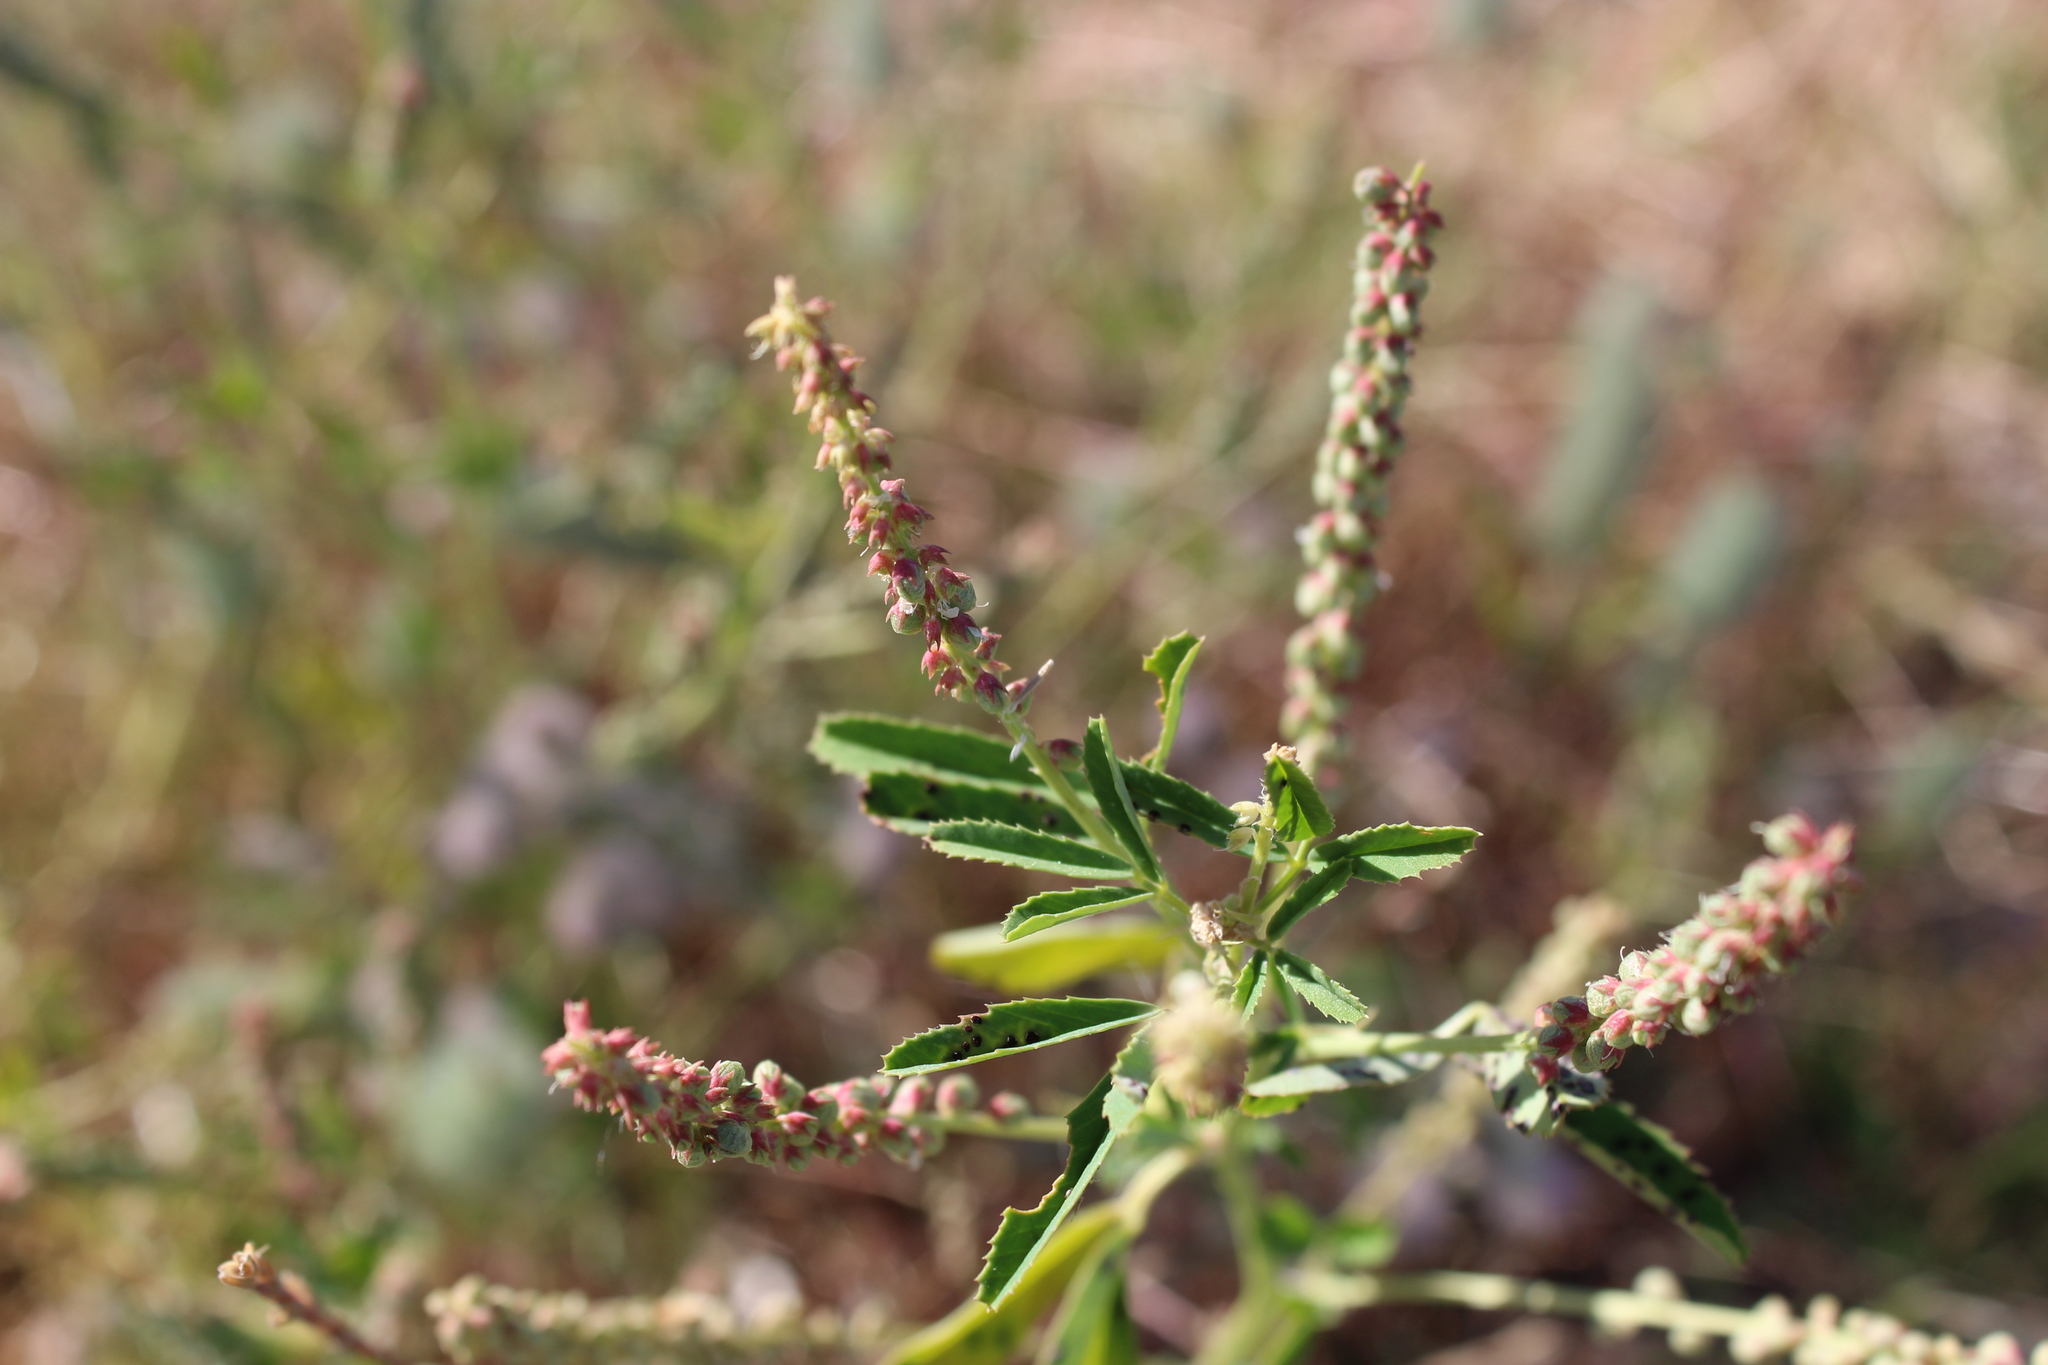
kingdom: Plantae
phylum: Tracheophyta
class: Magnoliopsida
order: Fabales
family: Fabaceae
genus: Melilotus
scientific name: Melilotus indicus
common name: Small melilot
